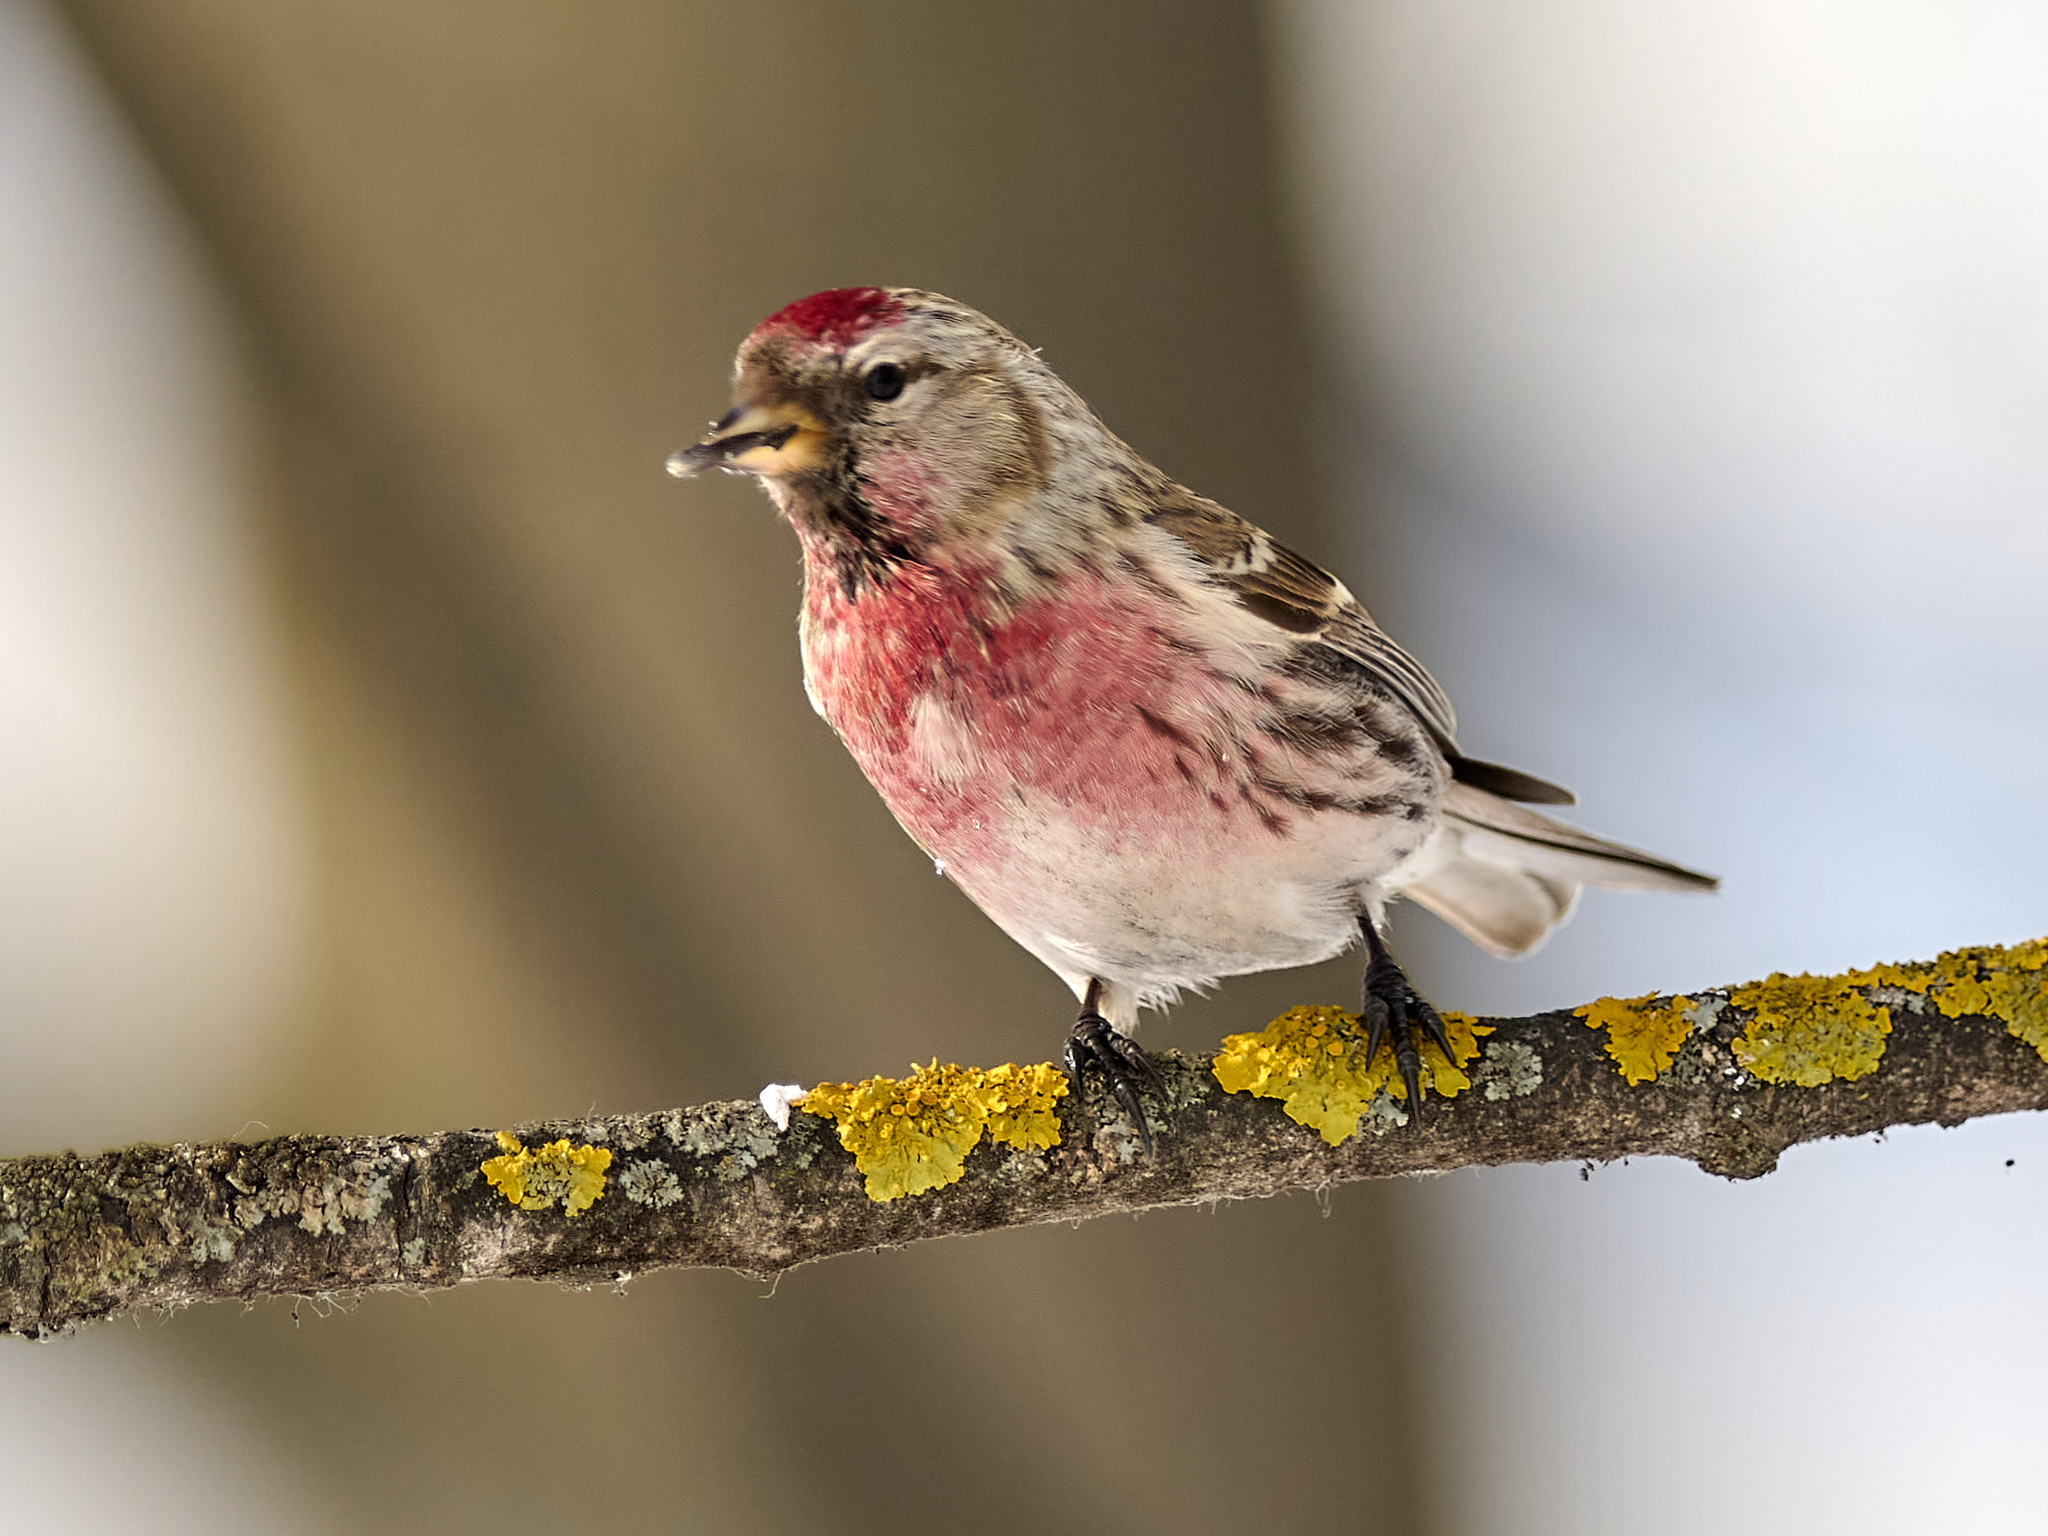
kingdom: Animalia
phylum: Chordata
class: Aves
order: Passeriformes
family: Fringillidae
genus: Acanthis
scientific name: Acanthis flammea
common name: Common redpoll
